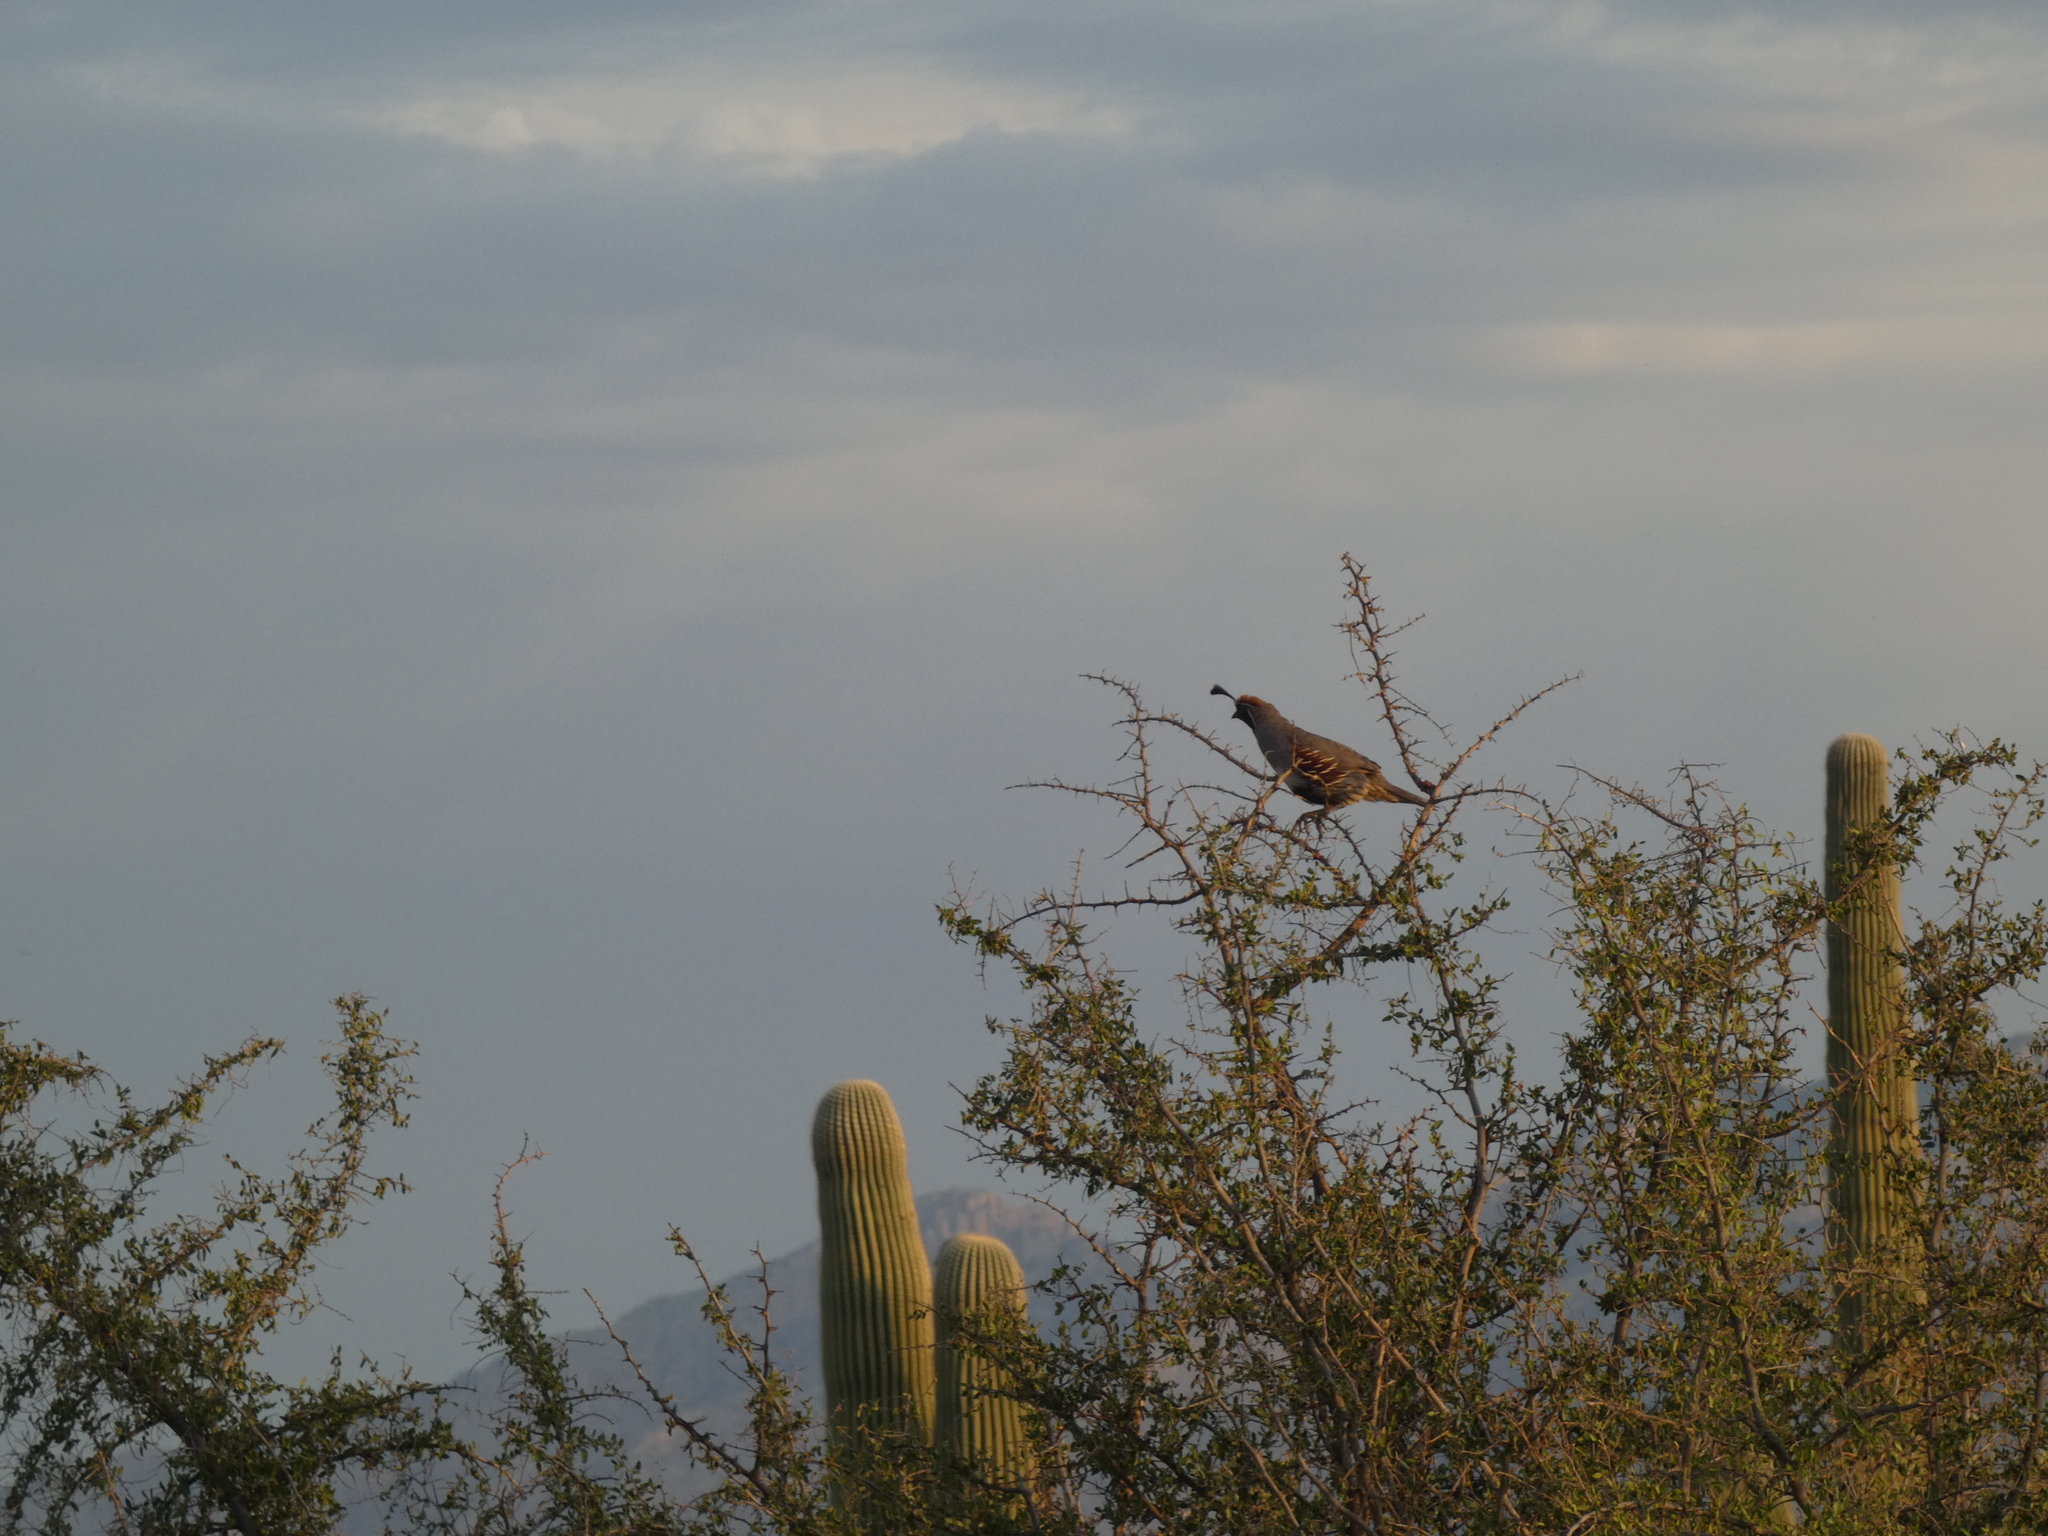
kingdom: Animalia
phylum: Chordata
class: Aves
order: Galliformes
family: Odontophoridae
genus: Callipepla
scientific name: Callipepla gambelii
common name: Gambel's quail
